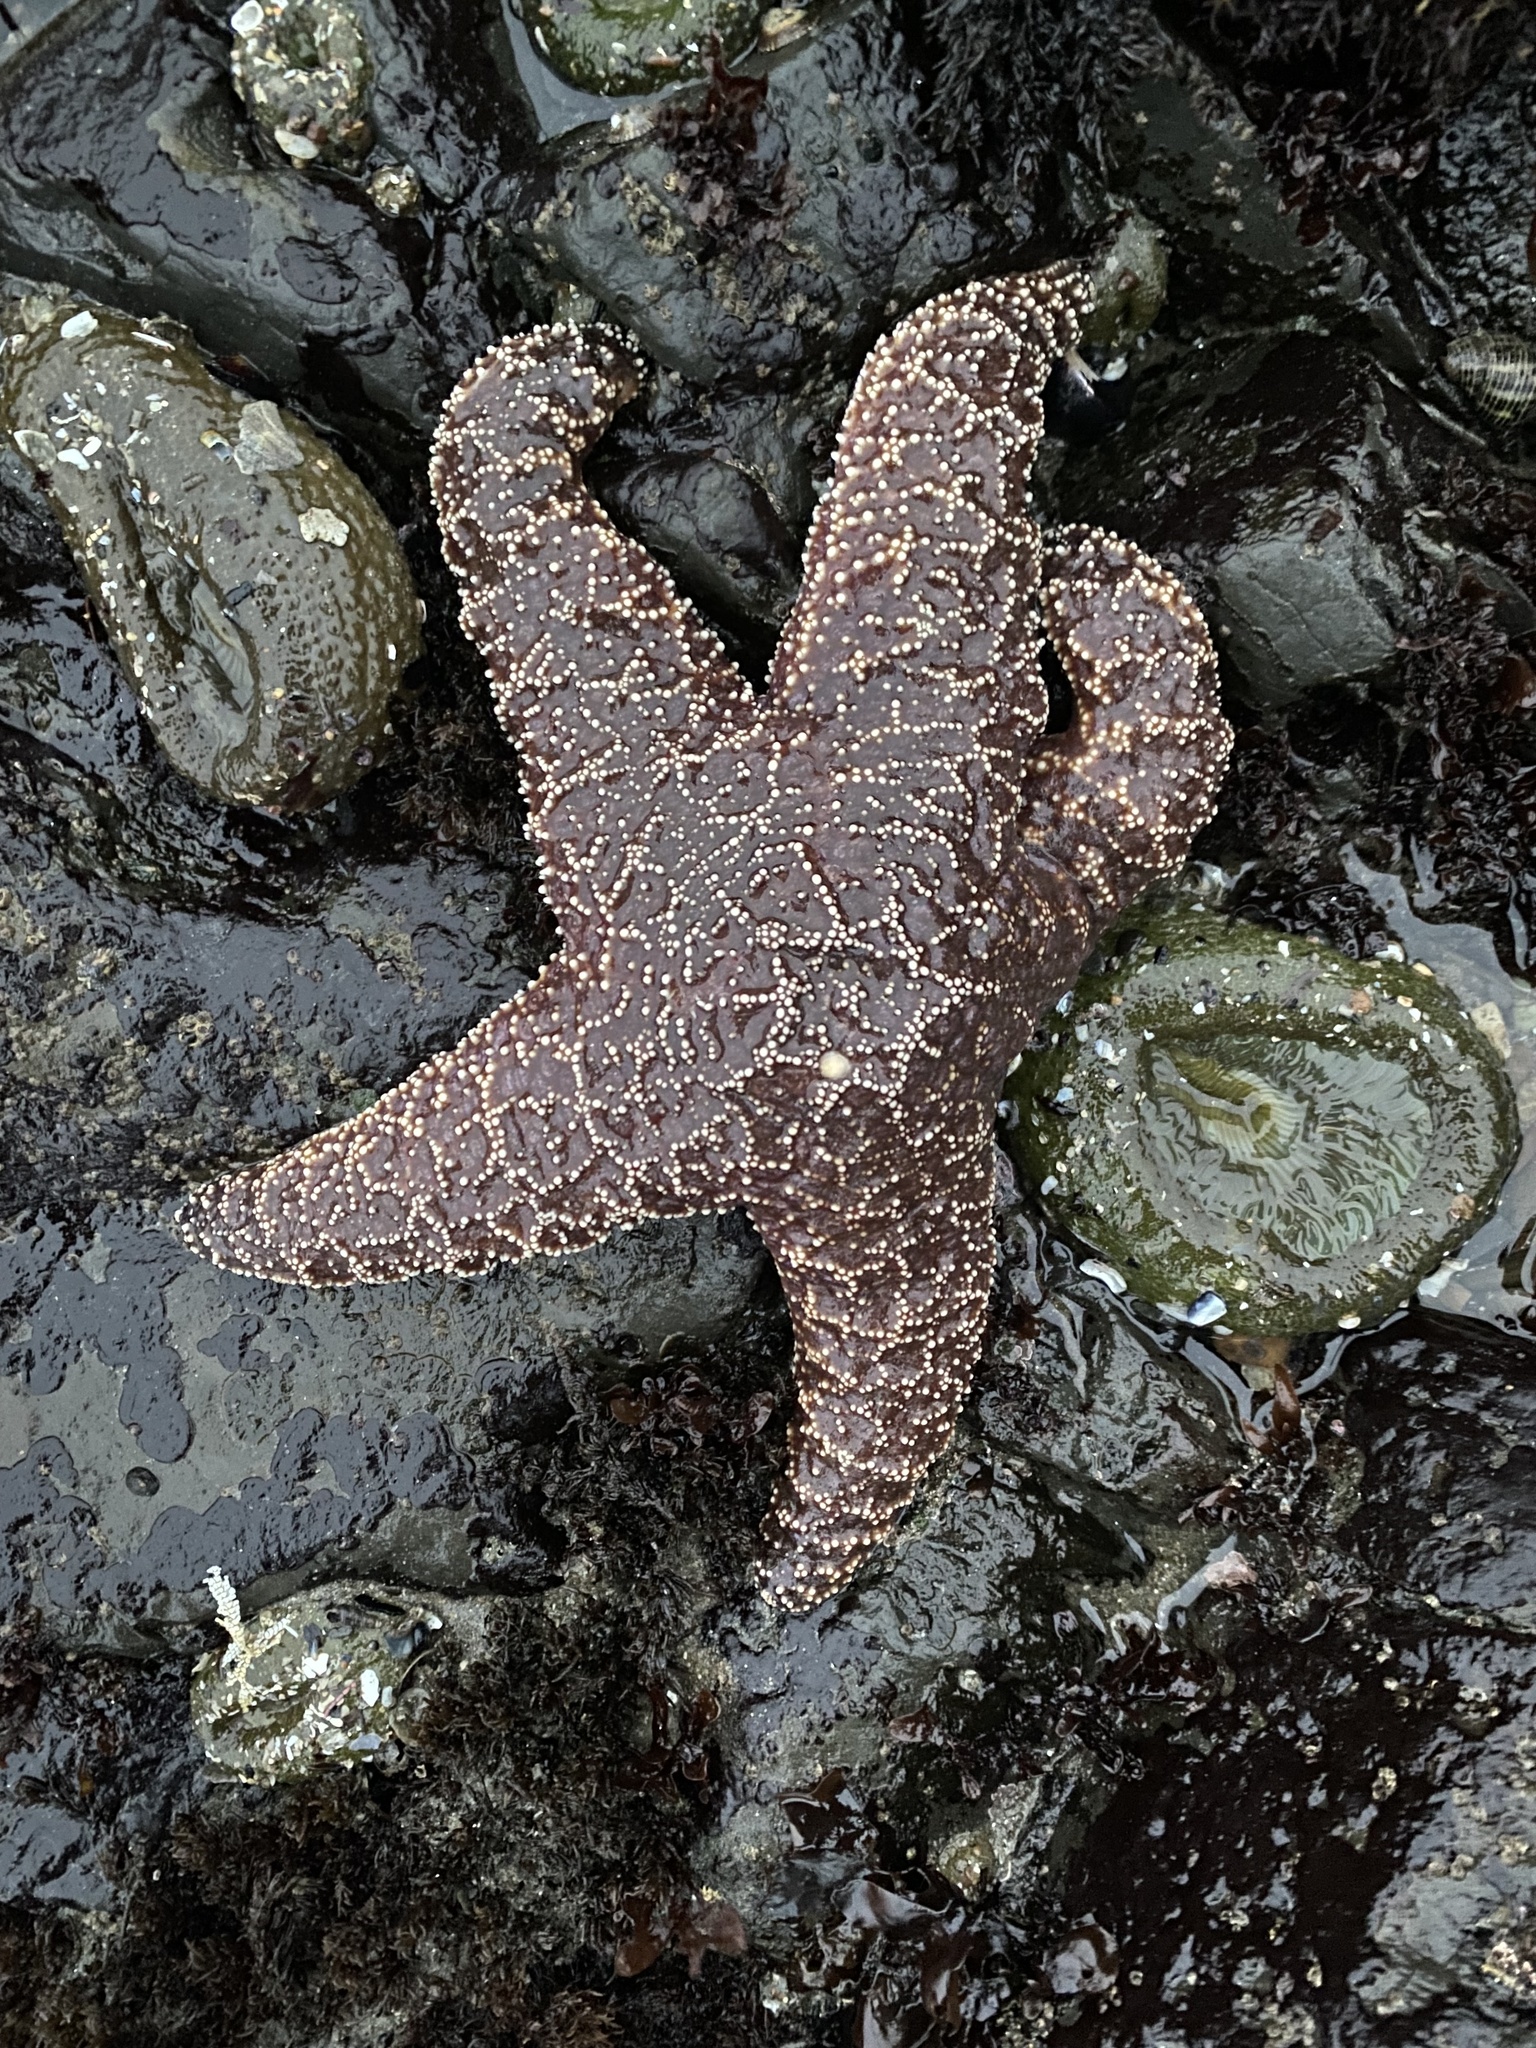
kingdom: Animalia
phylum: Echinodermata
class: Asteroidea
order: Forcipulatida
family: Asteriidae
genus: Pisaster
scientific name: Pisaster ochraceus
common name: Ochre stars
